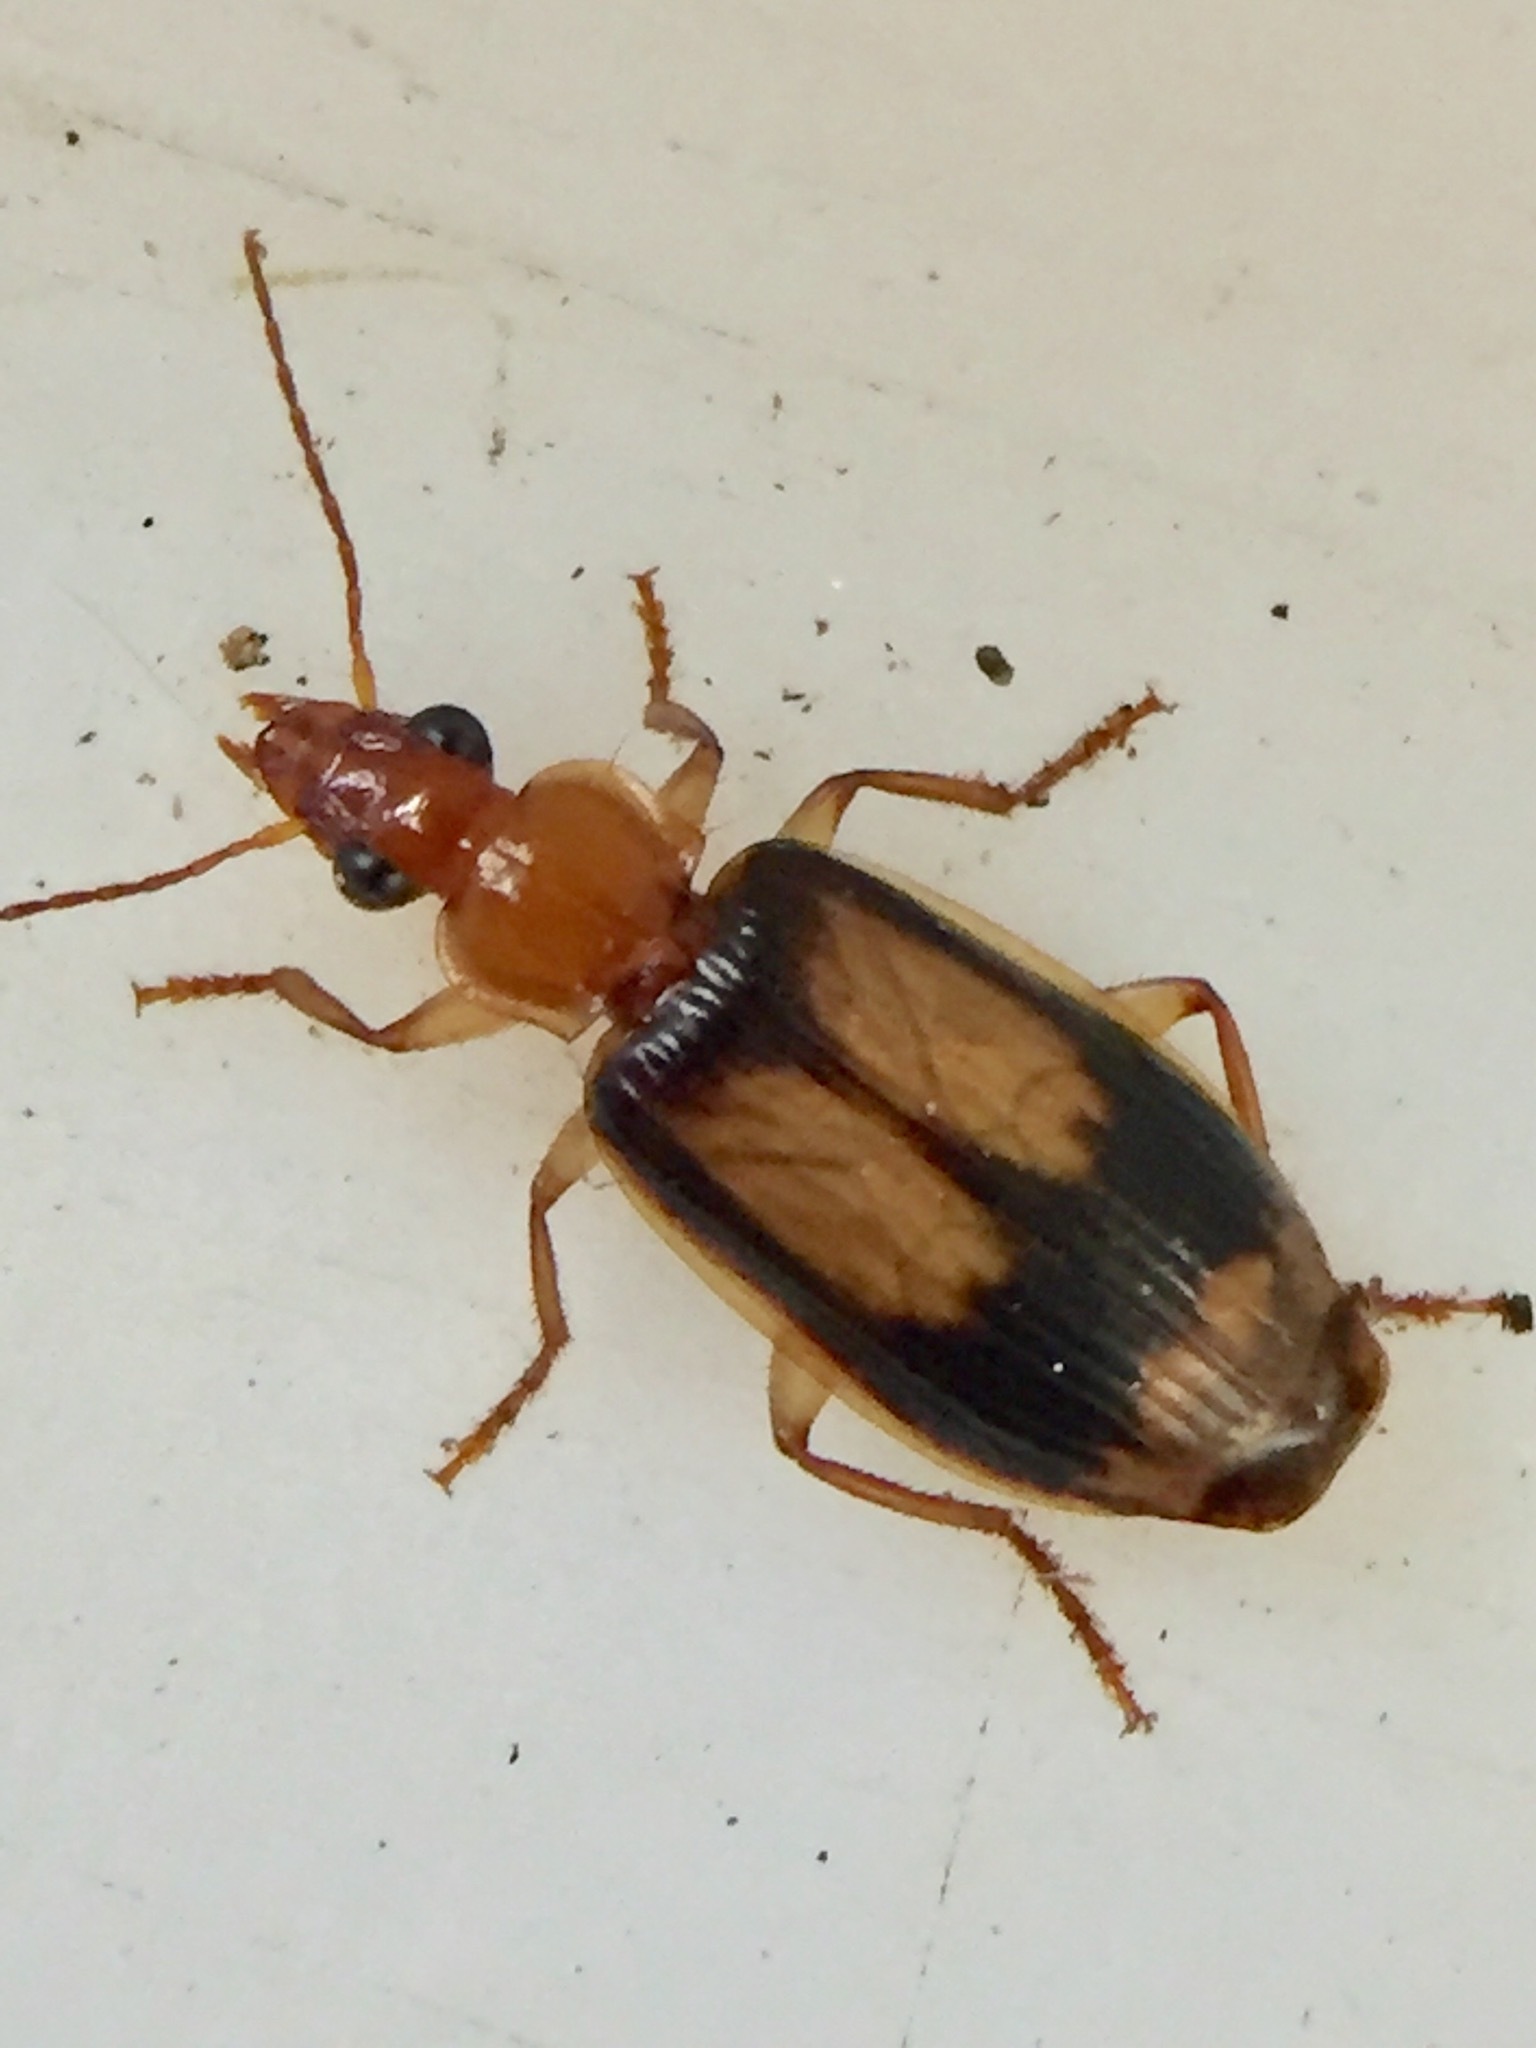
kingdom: Animalia
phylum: Arthropoda
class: Insecta
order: Coleoptera
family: Carabidae
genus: Trigonothops
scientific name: Trigonothops pacificus
